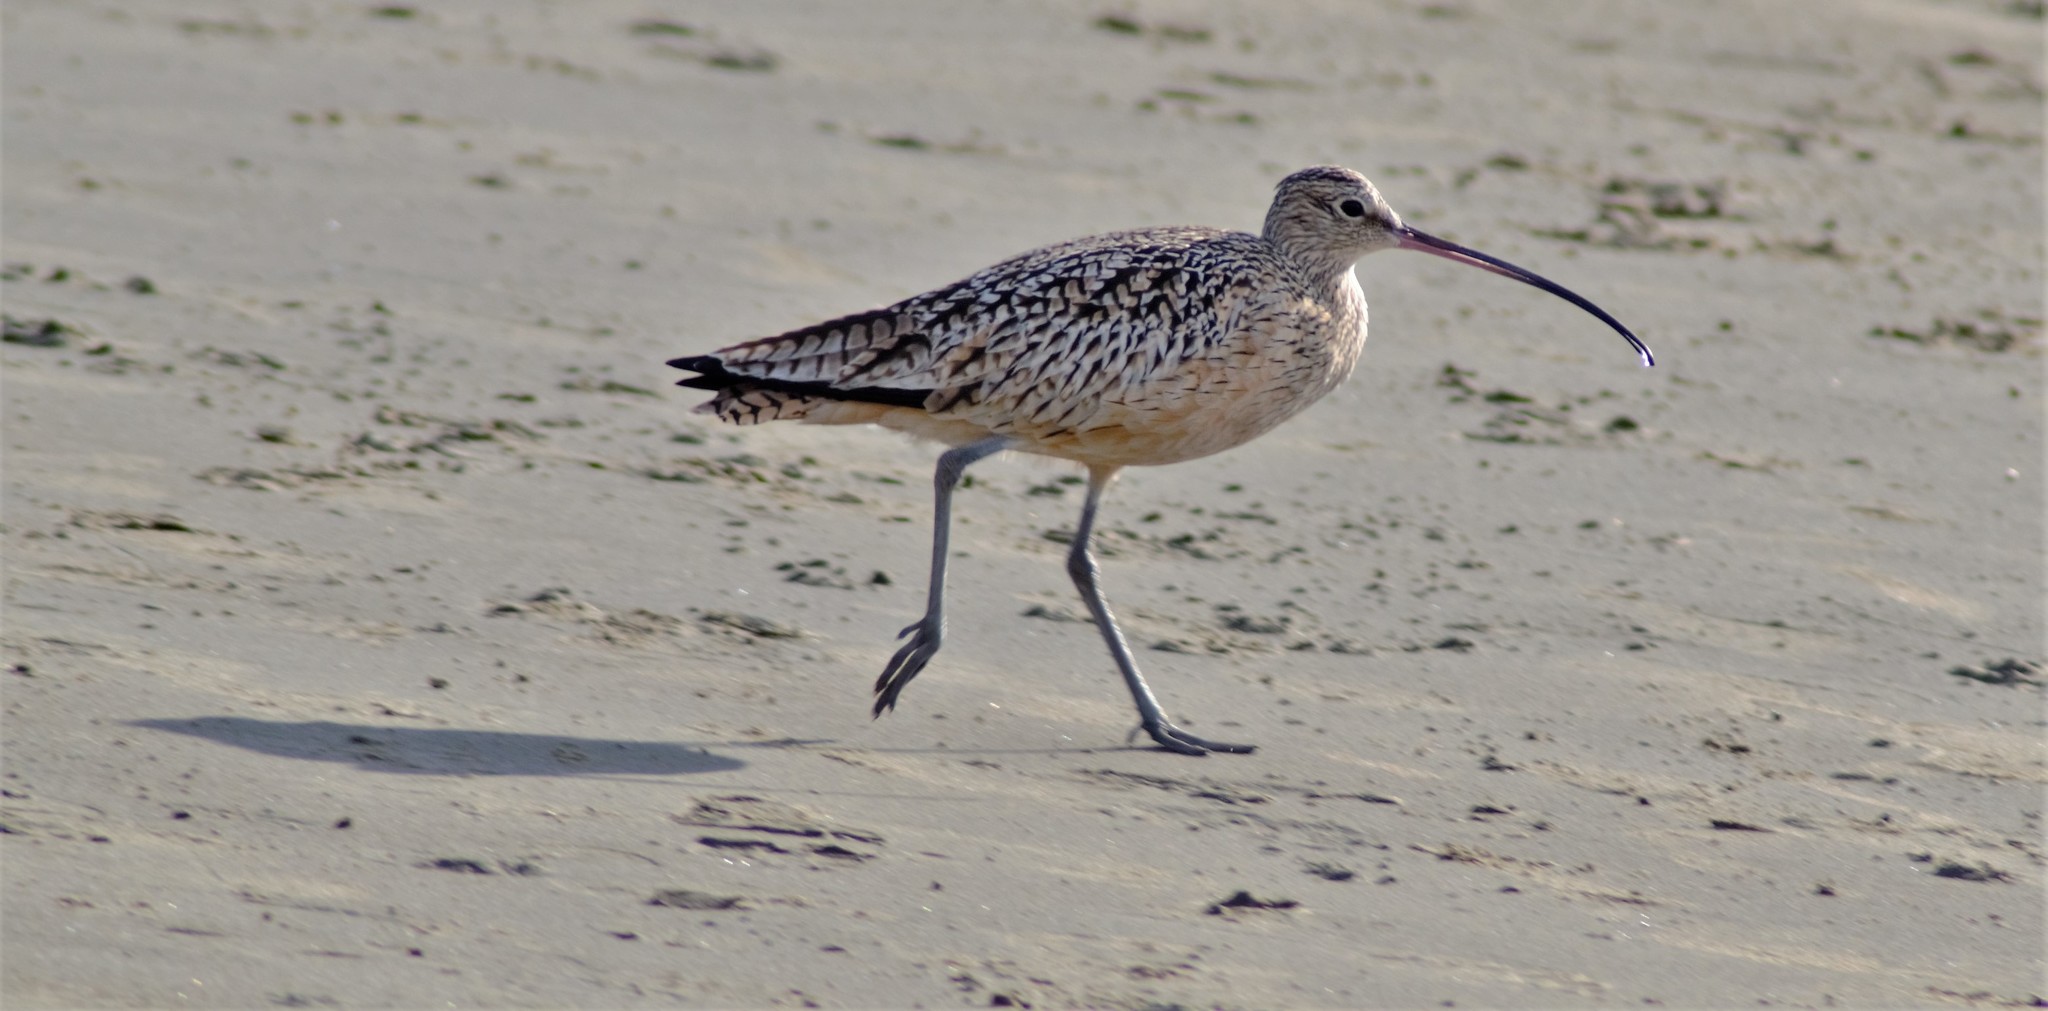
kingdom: Animalia
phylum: Chordata
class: Aves
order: Charadriiformes
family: Scolopacidae
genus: Numenius
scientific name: Numenius americanus
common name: Long-billed curlew
